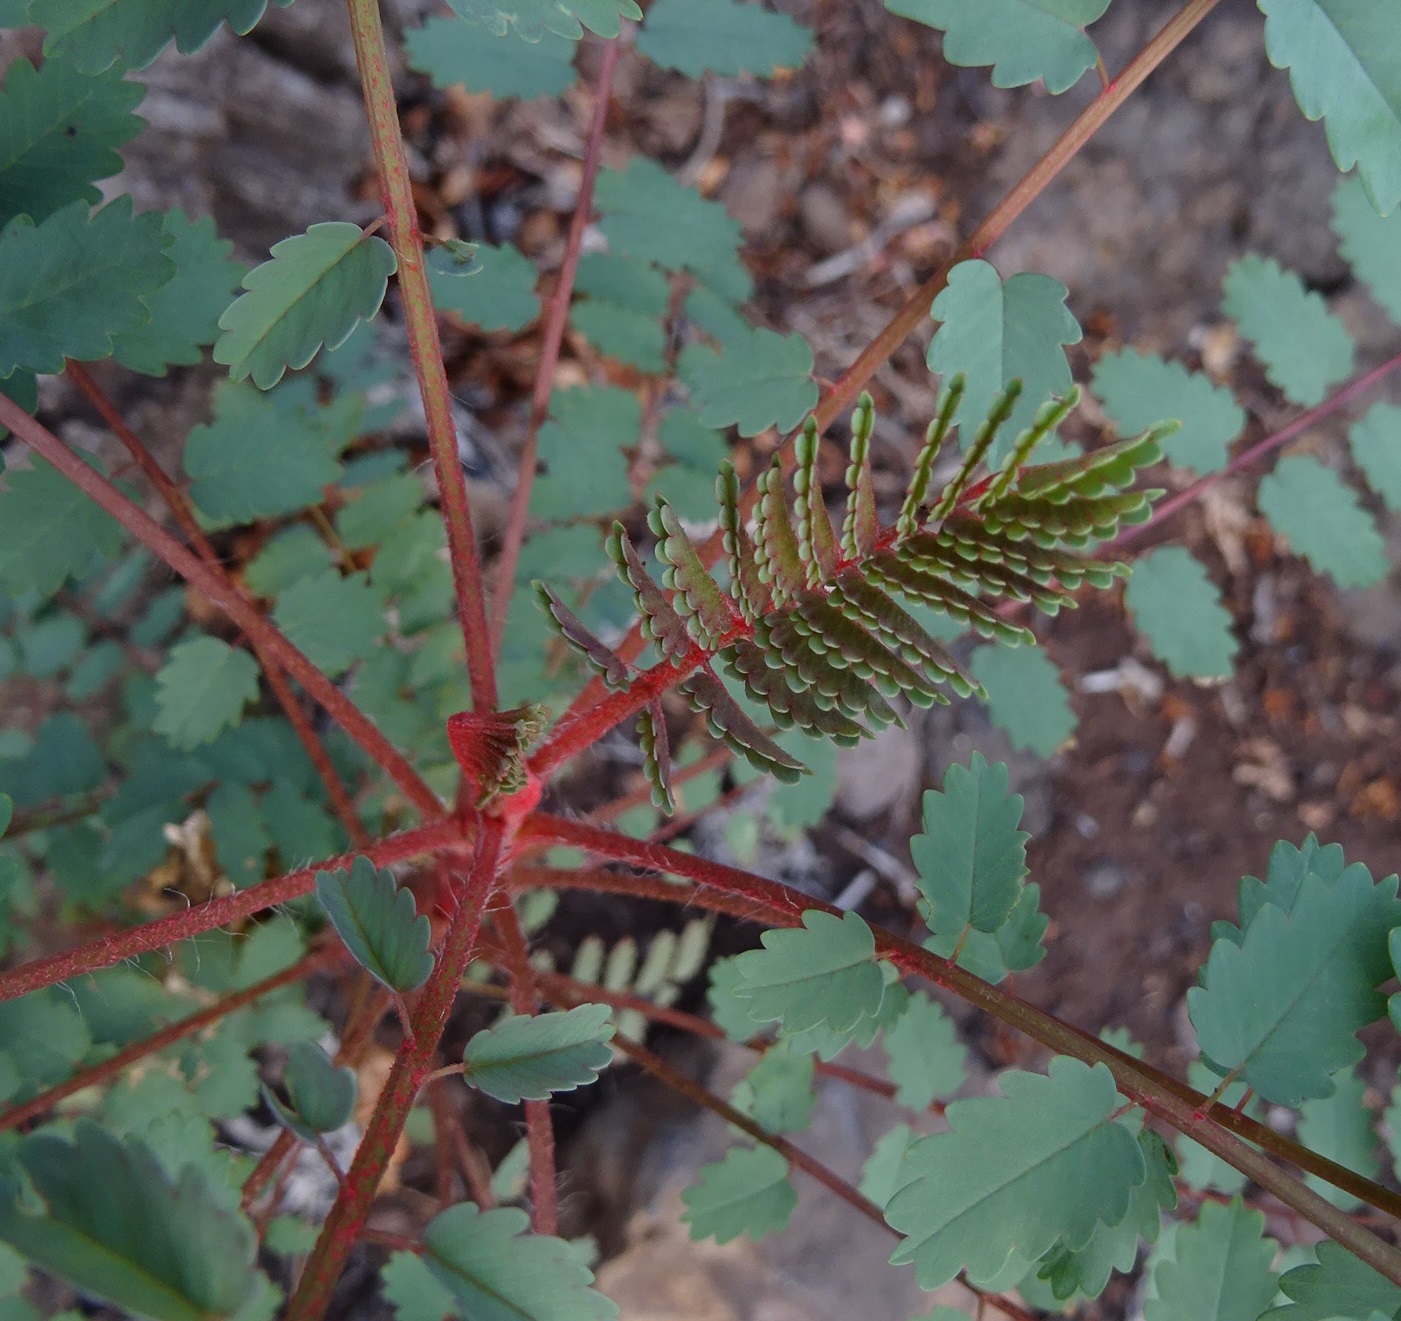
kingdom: Plantae
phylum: Tracheophyta
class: Magnoliopsida
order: Rosales
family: Rosaceae
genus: Marcetella
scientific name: Marcetella moquiniana
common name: Burnet tree
